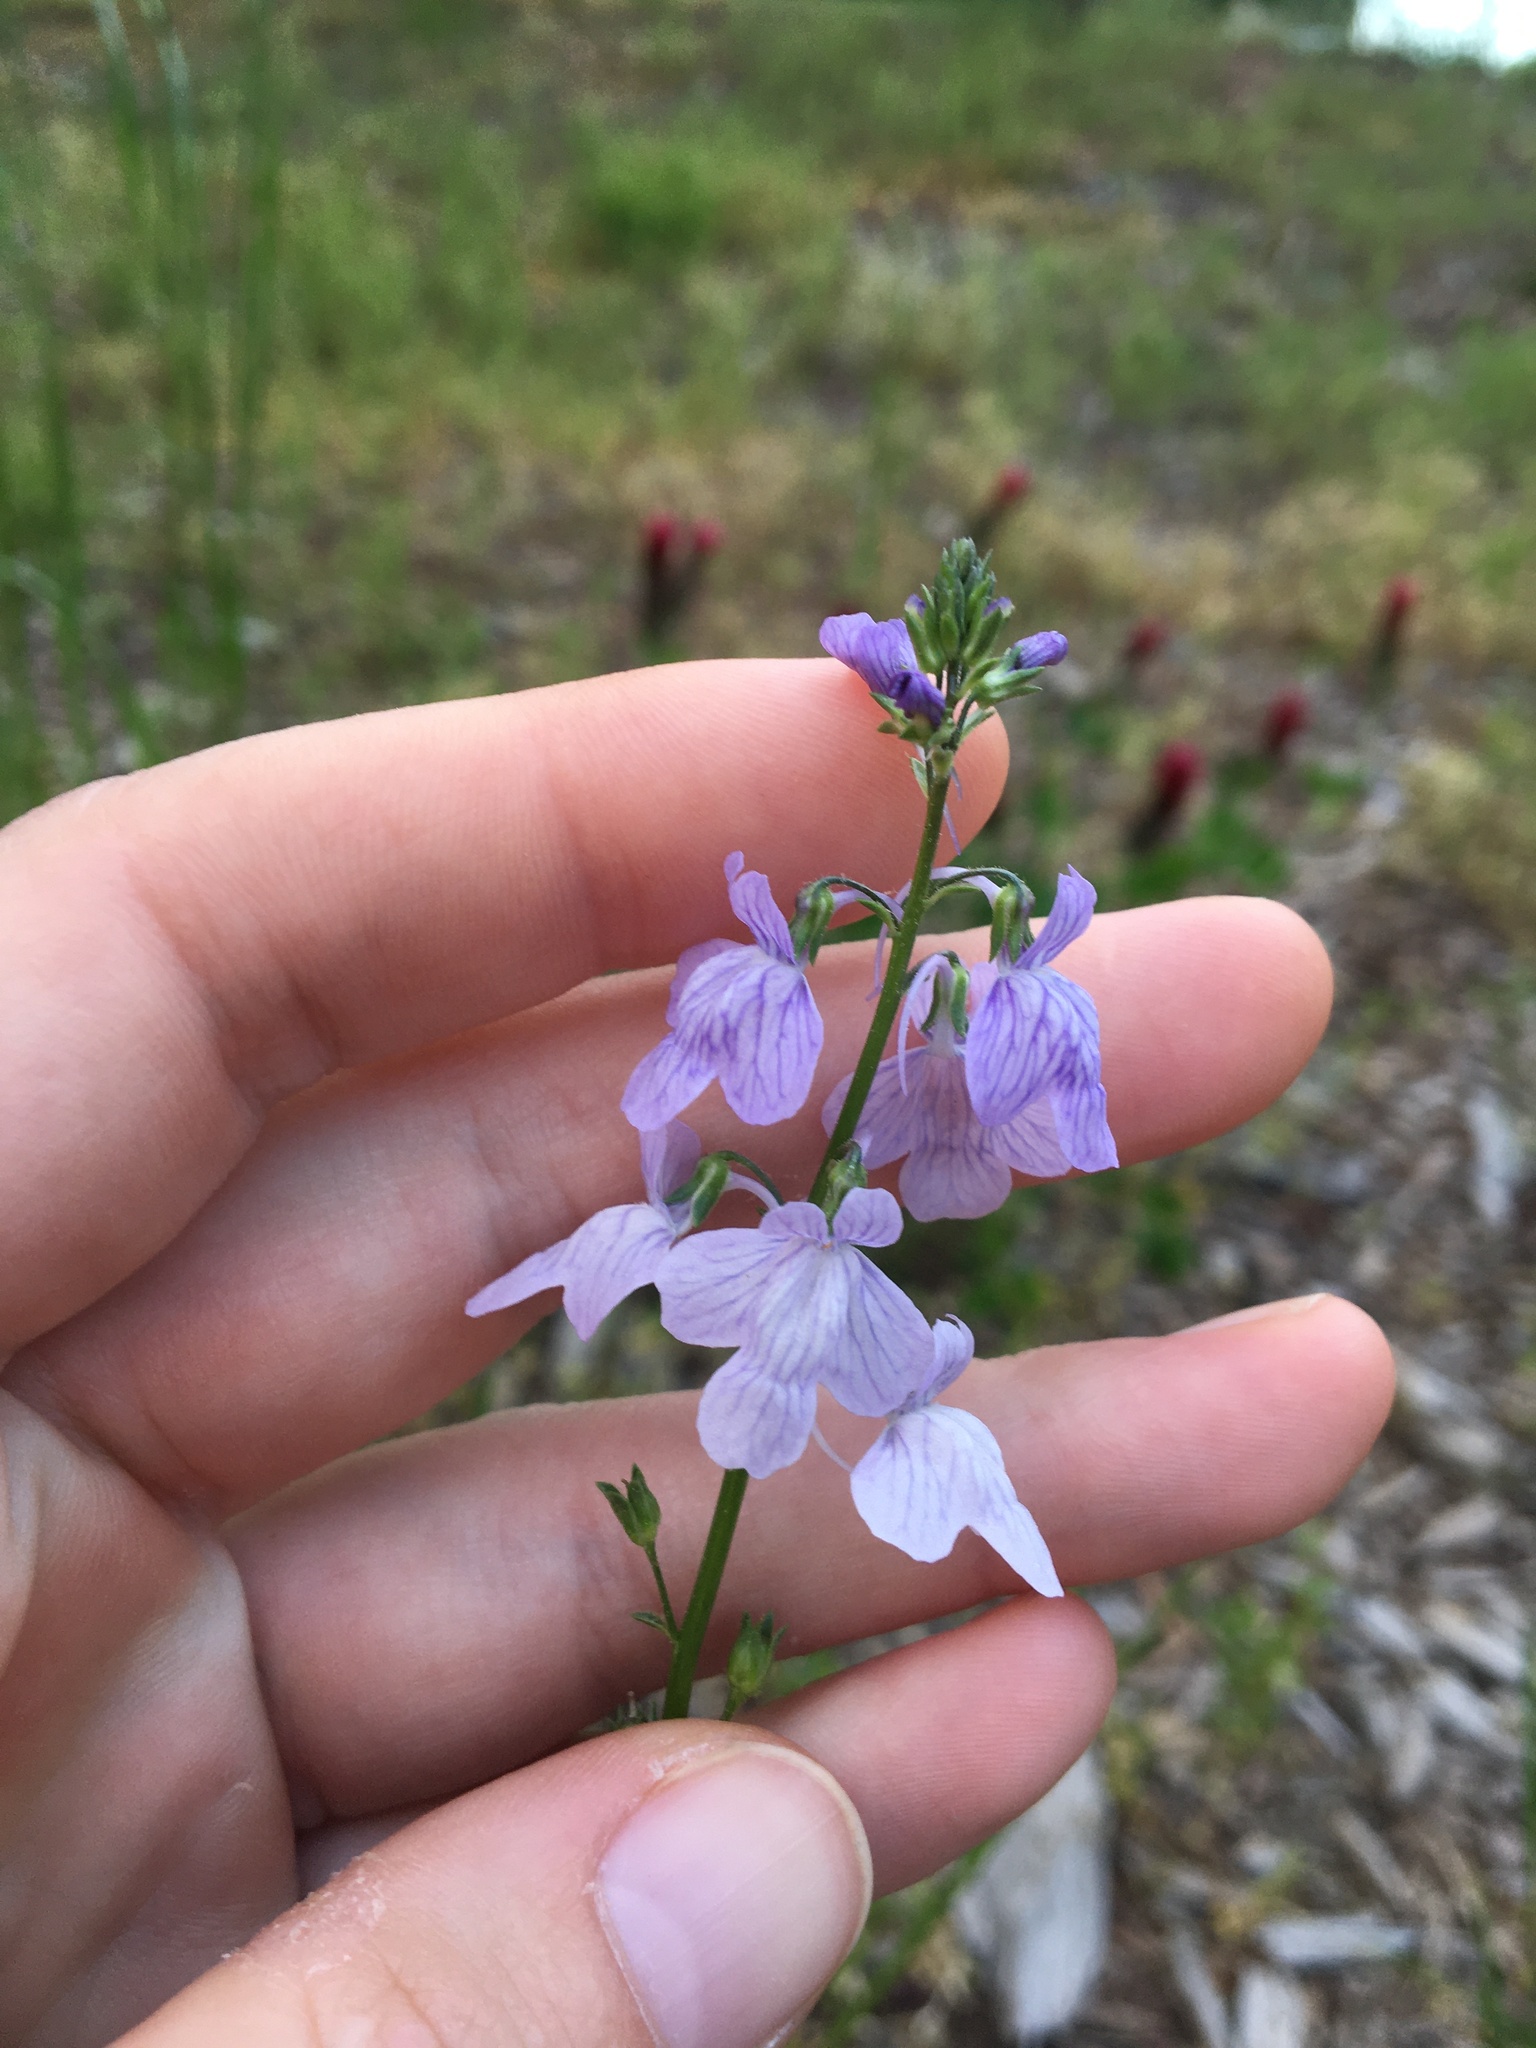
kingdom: Plantae
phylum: Tracheophyta
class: Magnoliopsida
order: Lamiales
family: Plantaginaceae
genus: Nuttallanthus
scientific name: Nuttallanthus texanus
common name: Texas toadflax
